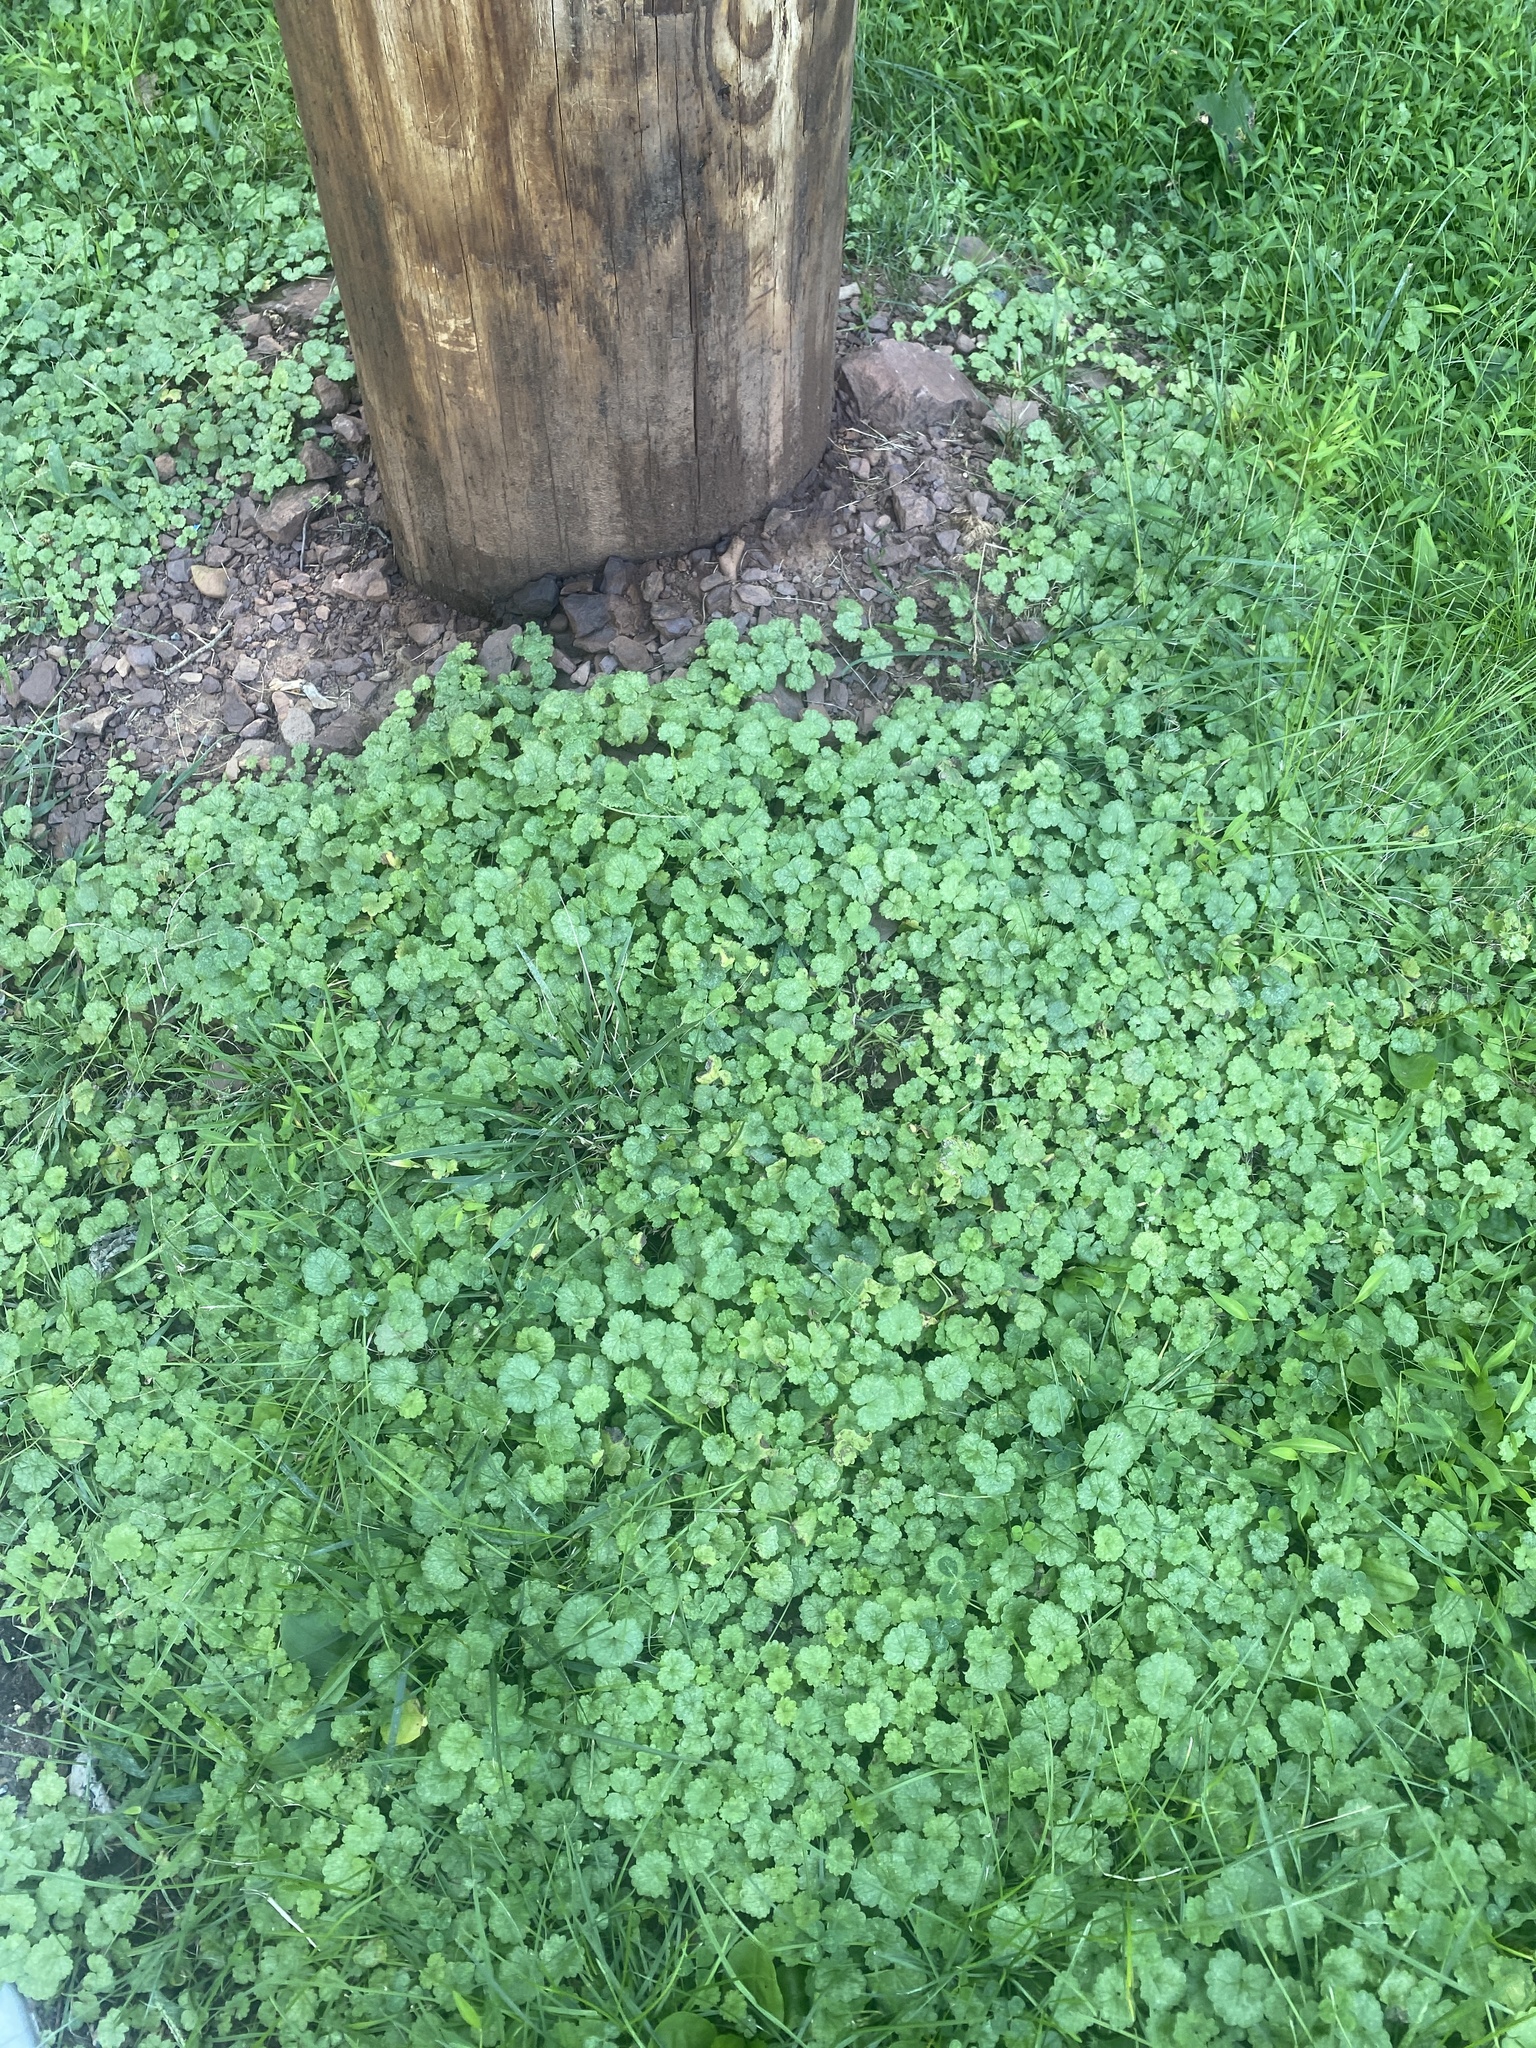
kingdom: Plantae
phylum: Tracheophyta
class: Magnoliopsida
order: Lamiales
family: Lamiaceae
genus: Glechoma
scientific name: Glechoma hederacea
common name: Ground ivy
